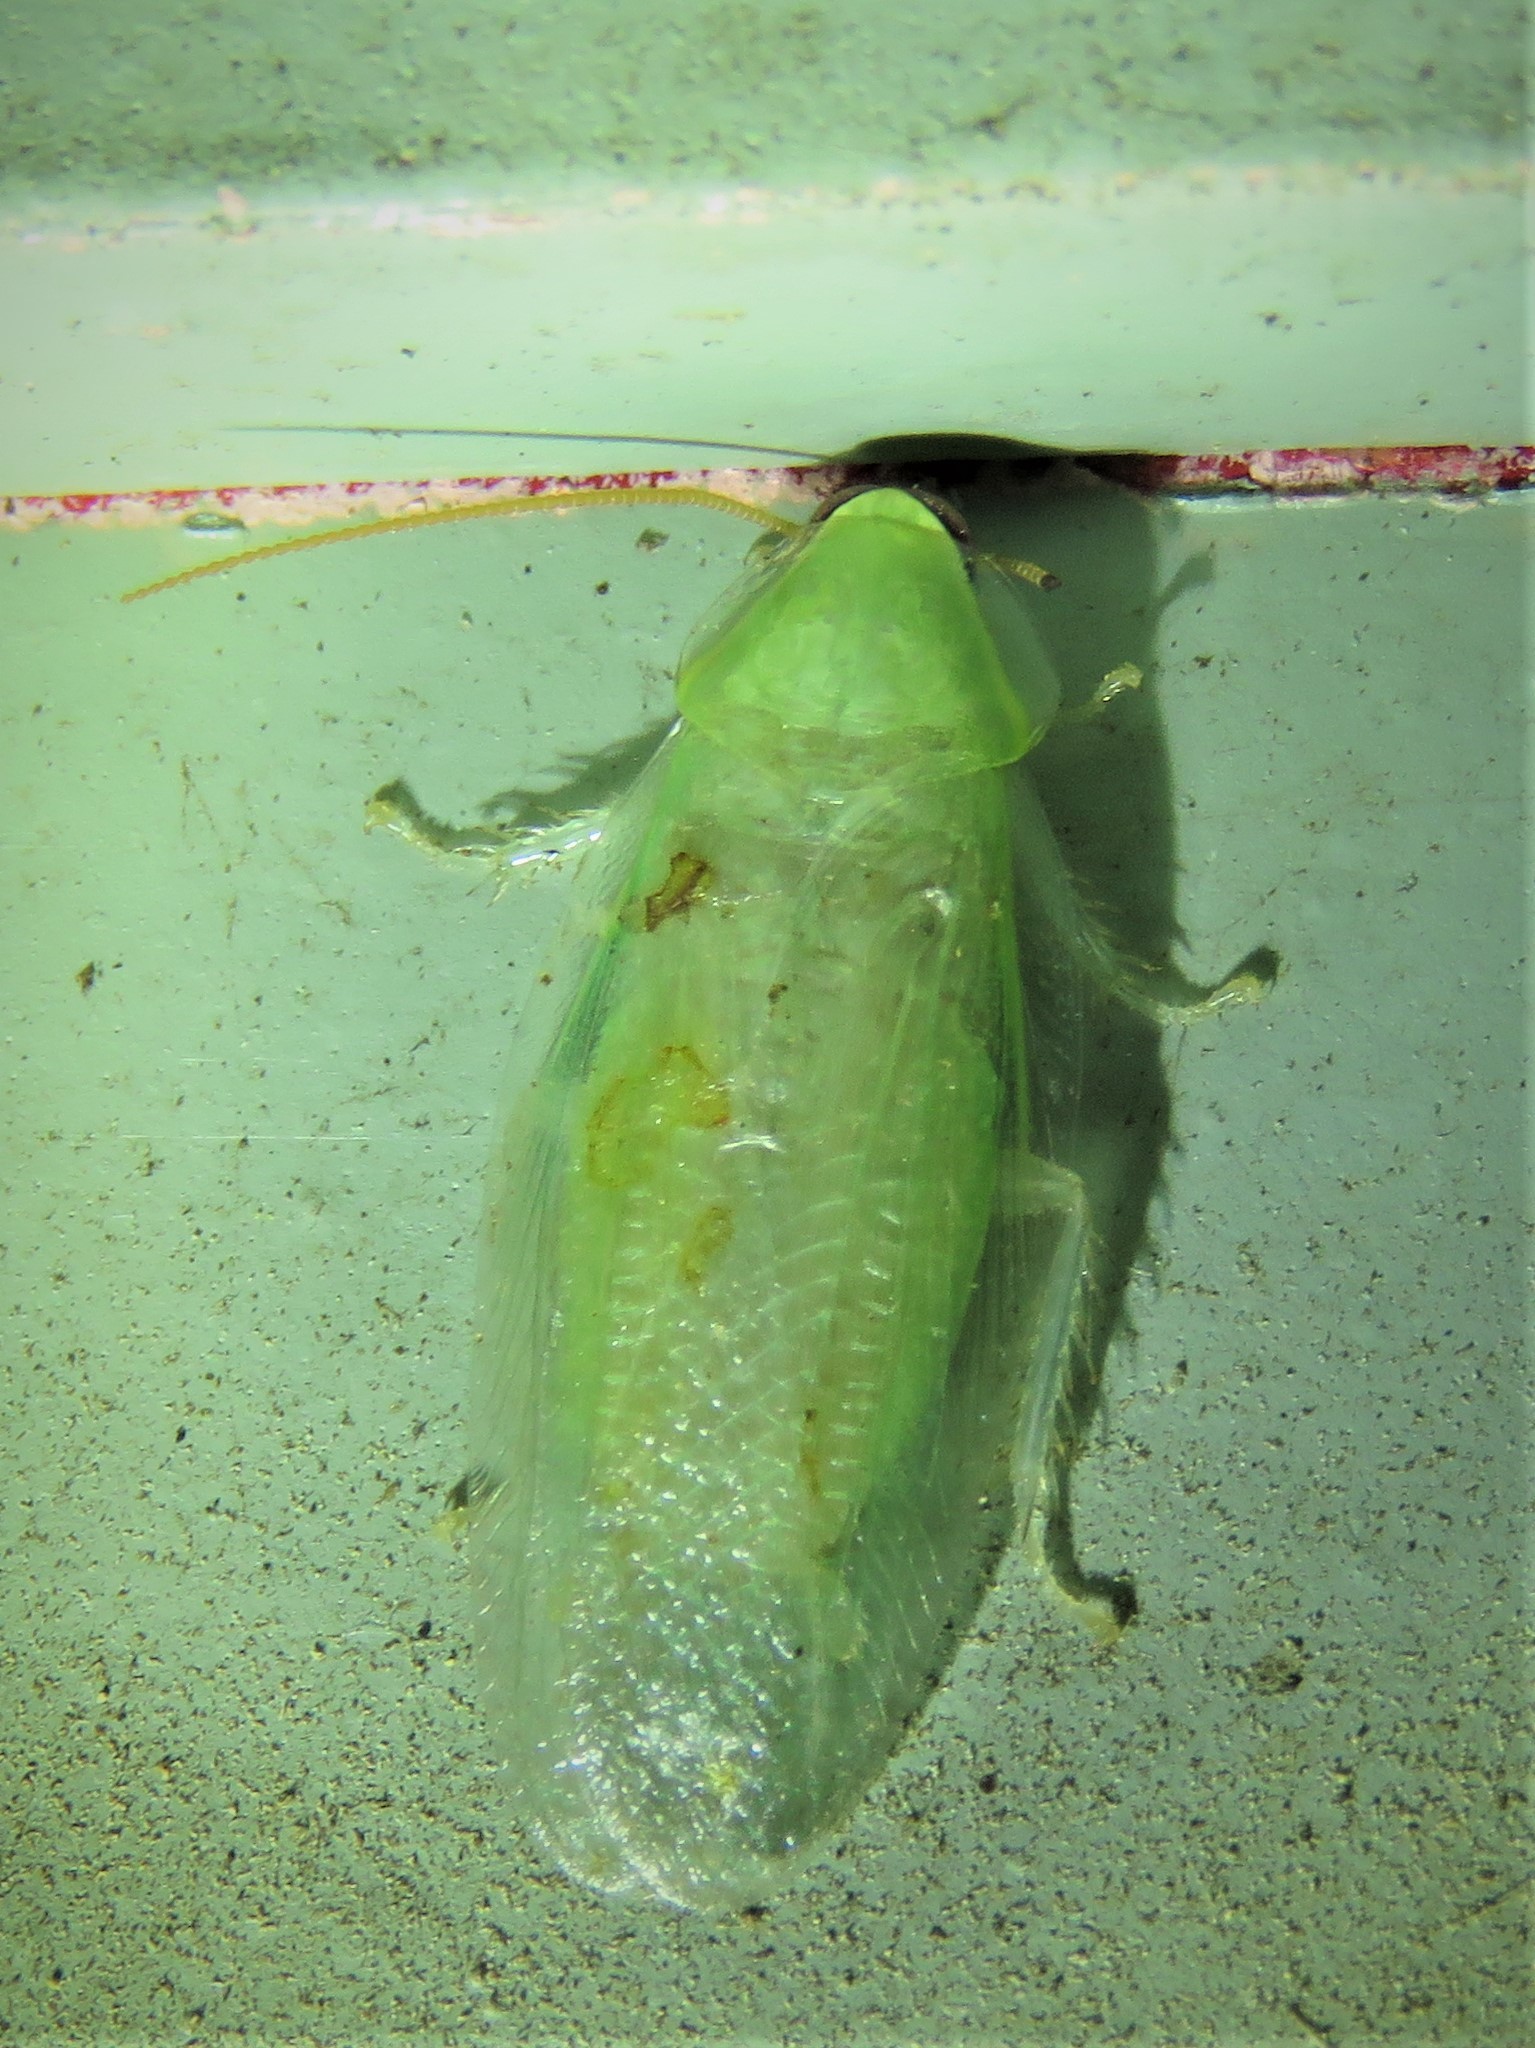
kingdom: Animalia
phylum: Arthropoda
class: Insecta
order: Blattodea
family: Blaberidae
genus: Panchlora
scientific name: Panchlora nivea
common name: Cuban cockroach
